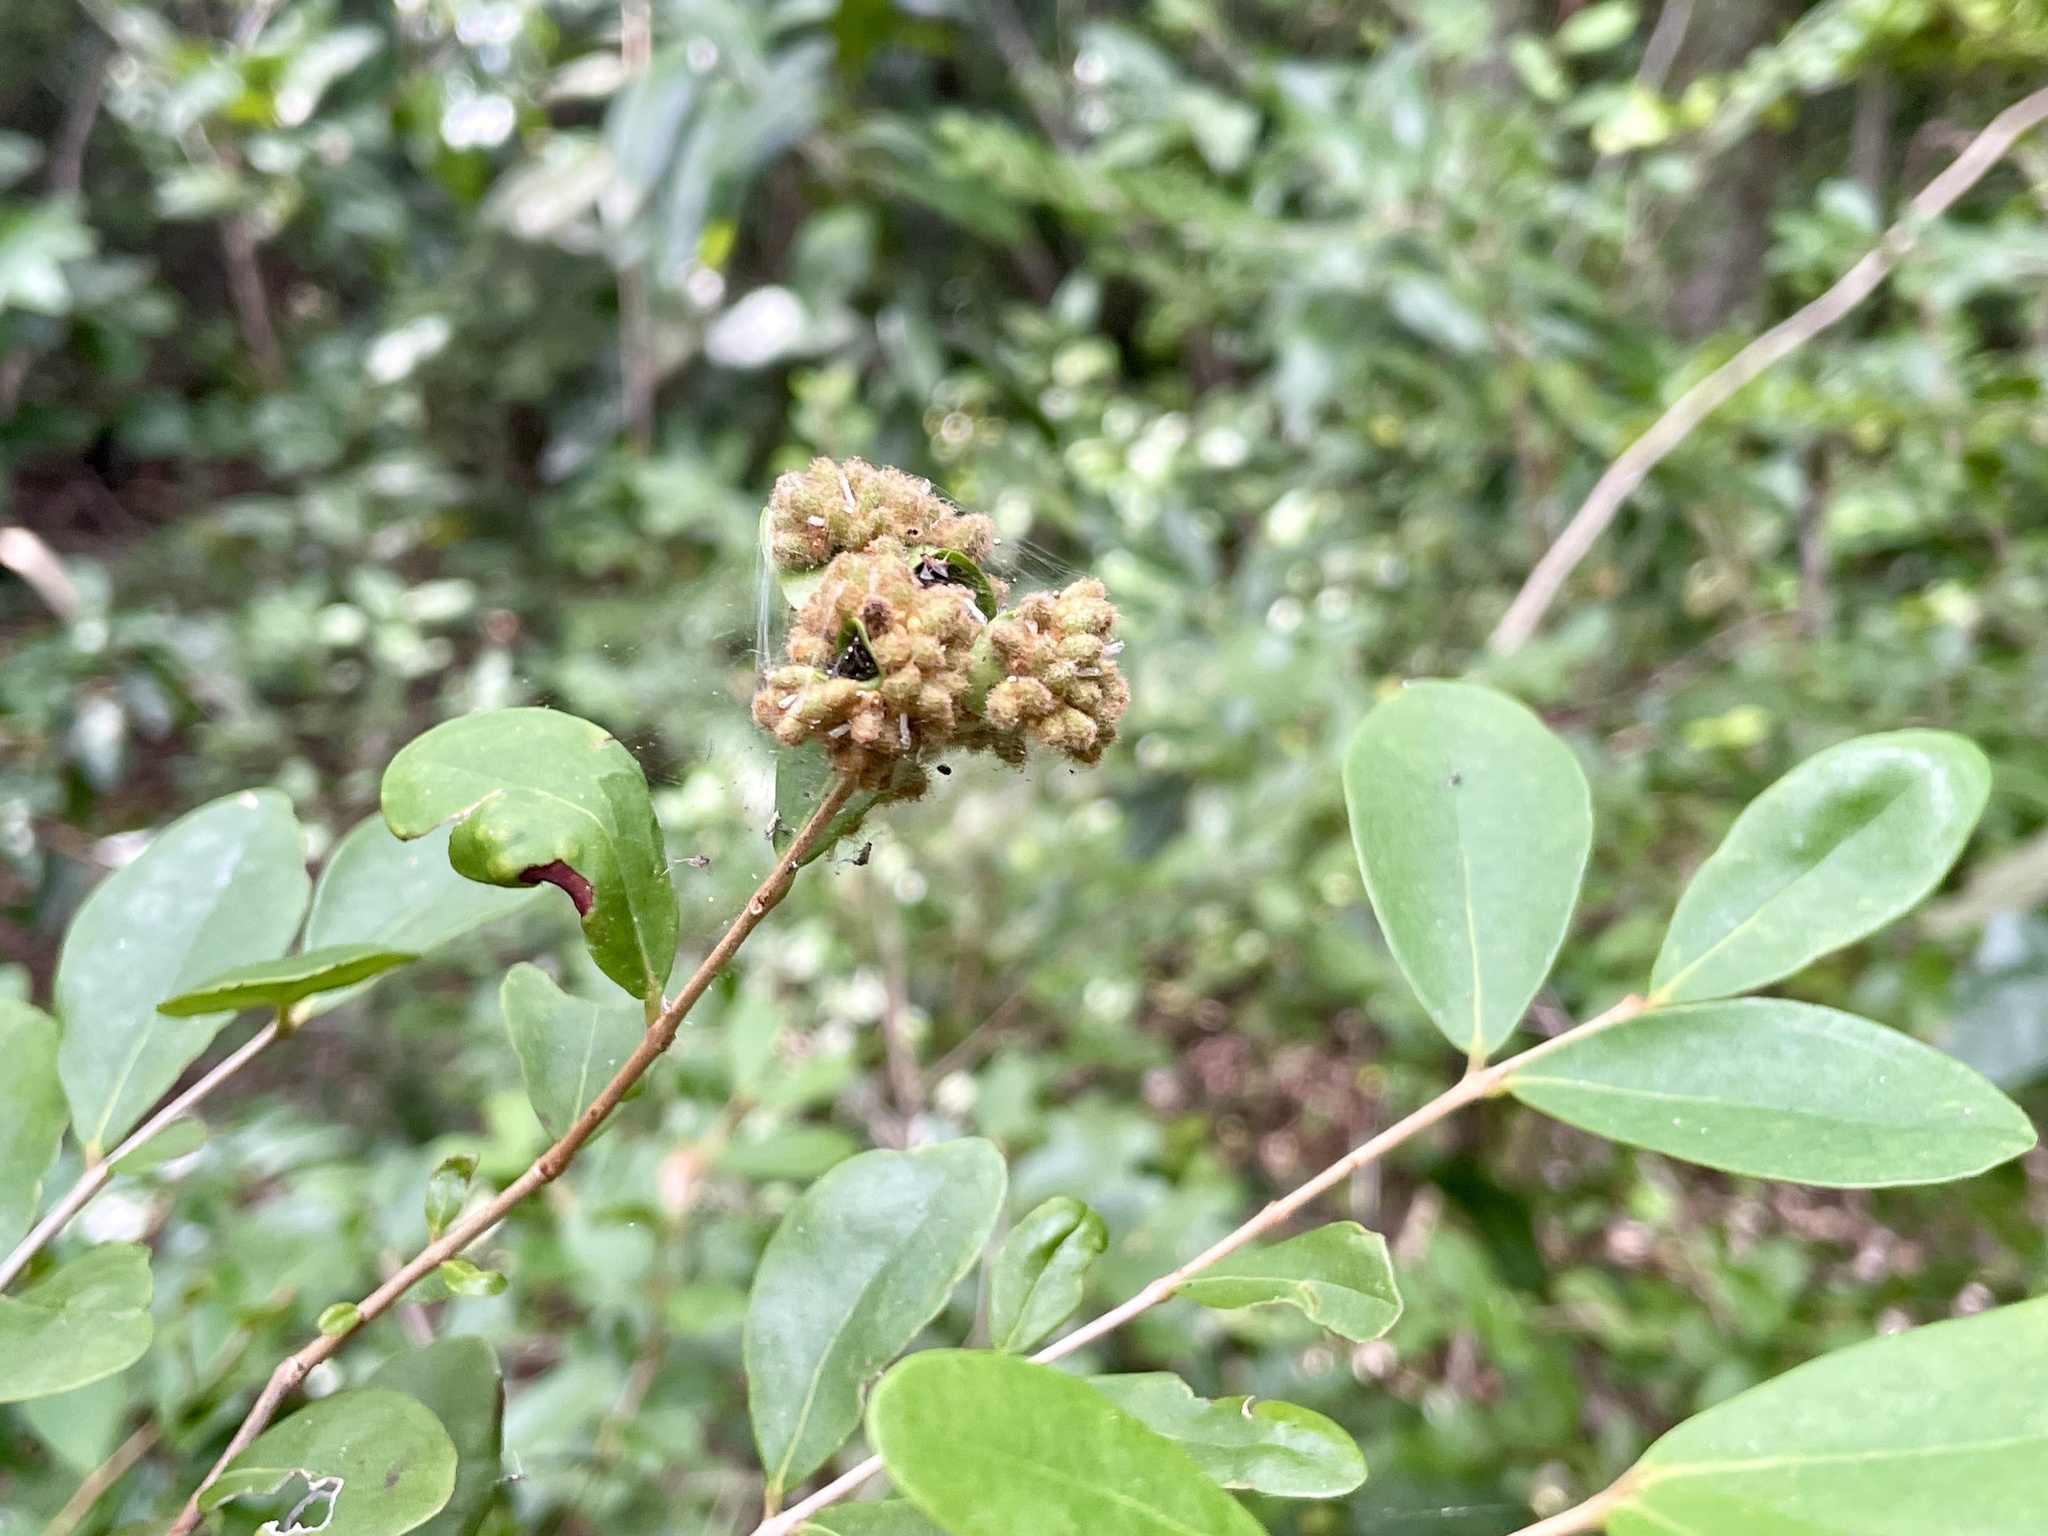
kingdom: Plantae
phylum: Tracheophyta
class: Magnoliopsida
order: Myrtales
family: Myrtaceae
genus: Eugenia
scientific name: Eugenia foetida
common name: White wattling
